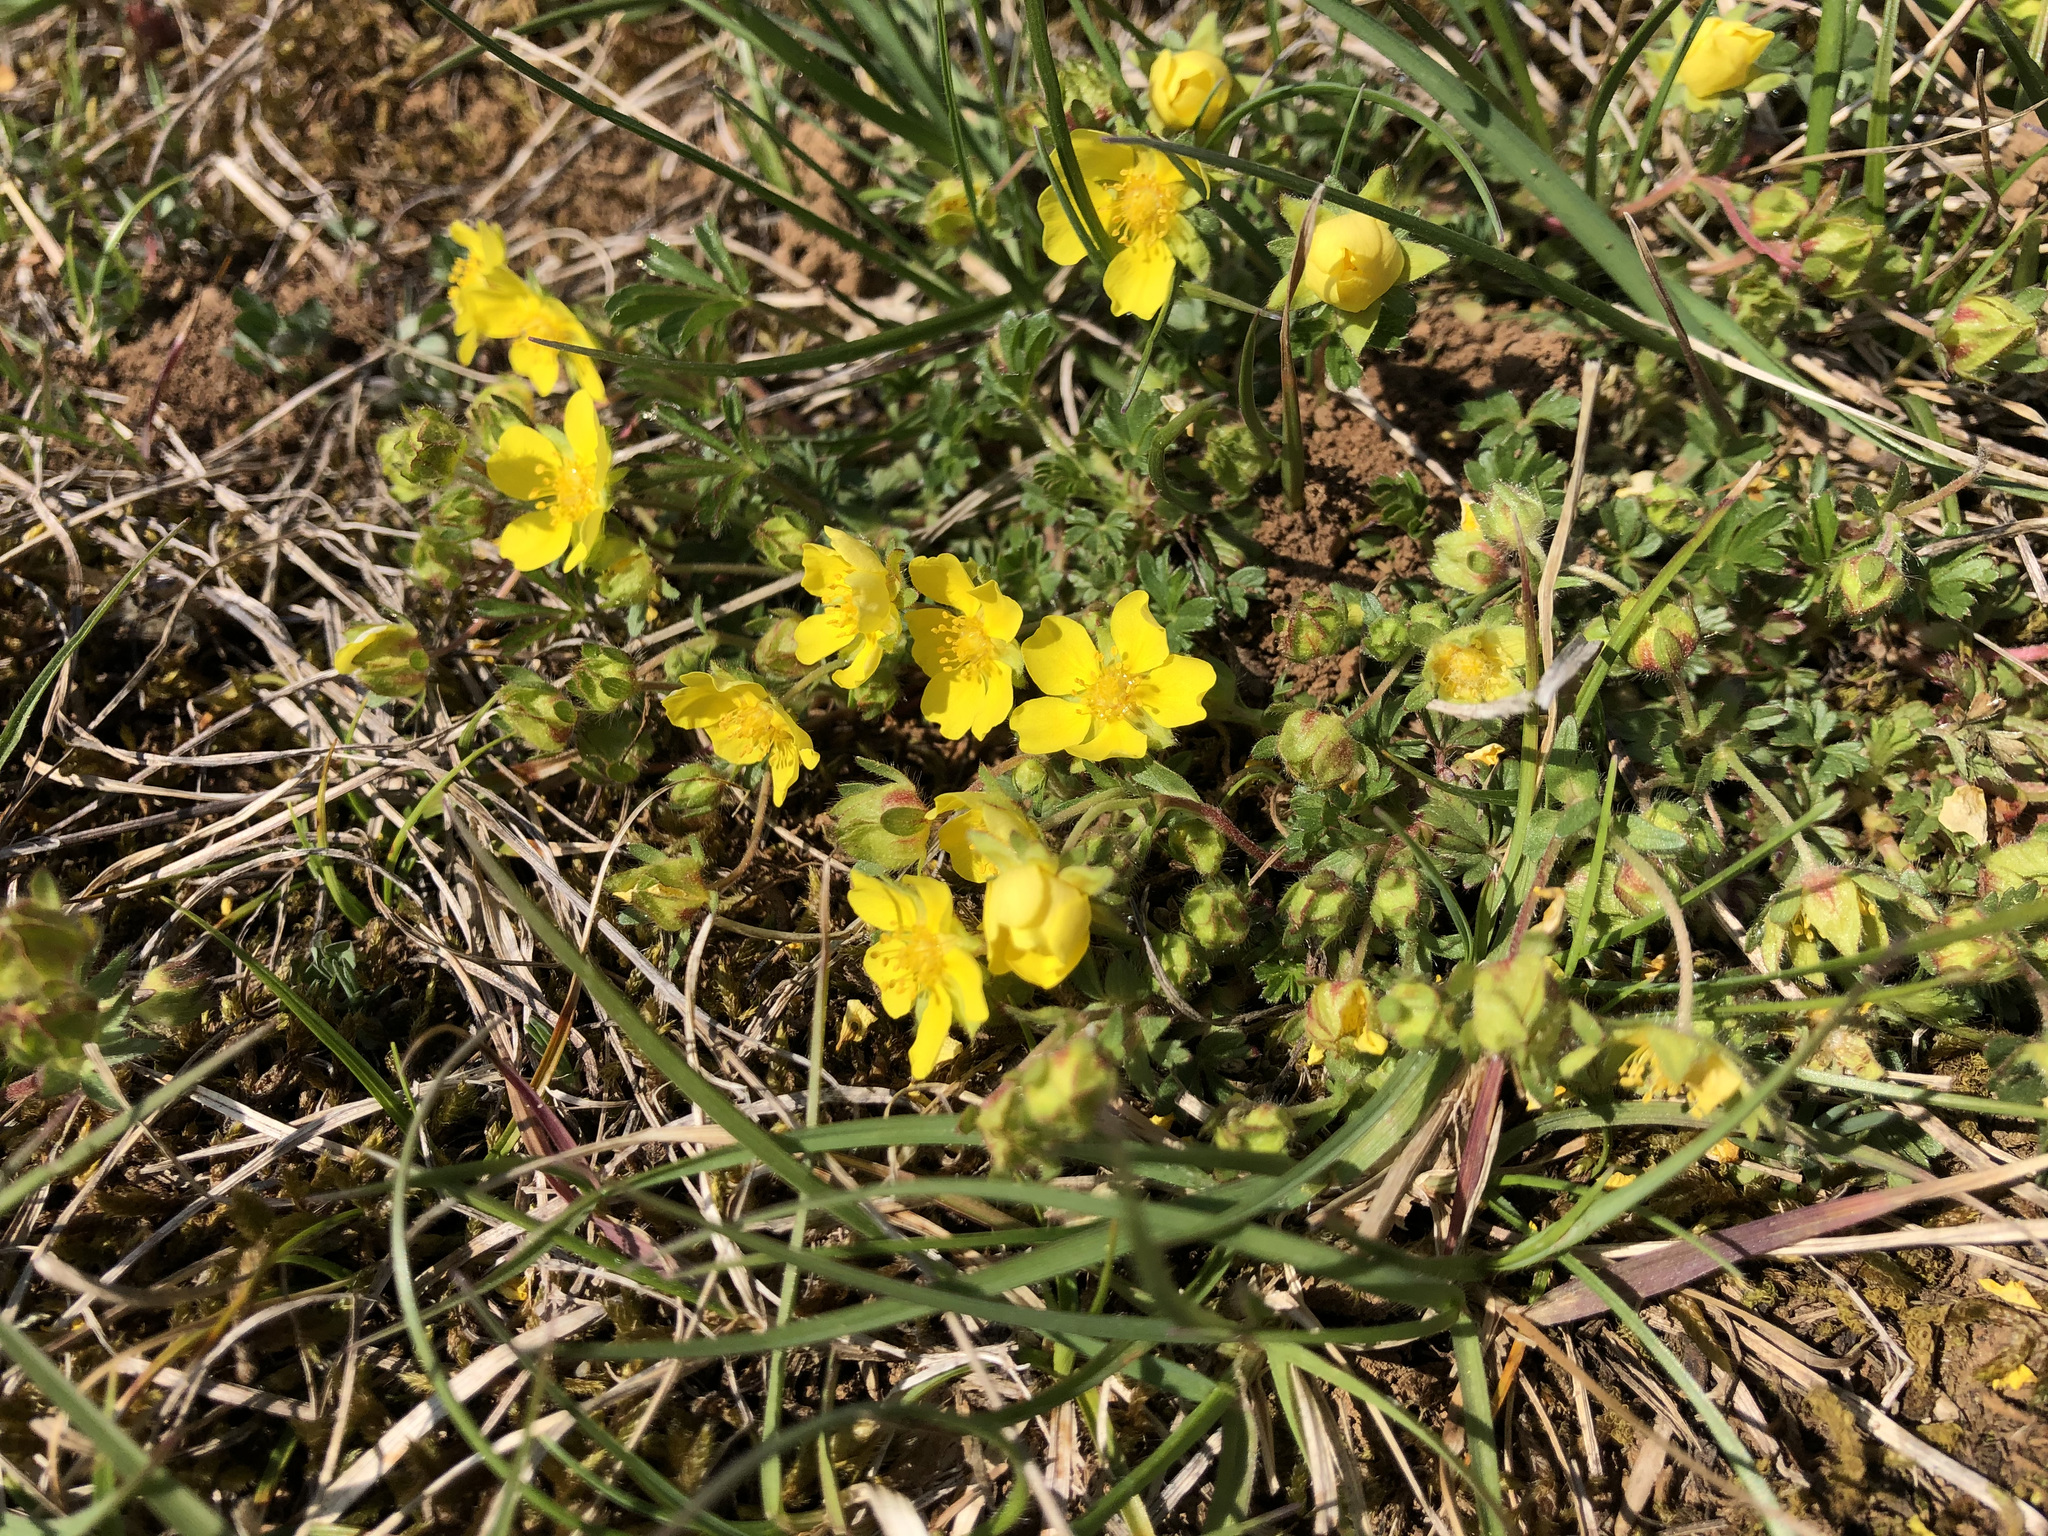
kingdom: Plantae
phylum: Tracheophyta
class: Magnoliopsida
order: Rosales
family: Rosaceae
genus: Potentilla
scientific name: Potentilla verna
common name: Spring cinquefoil
